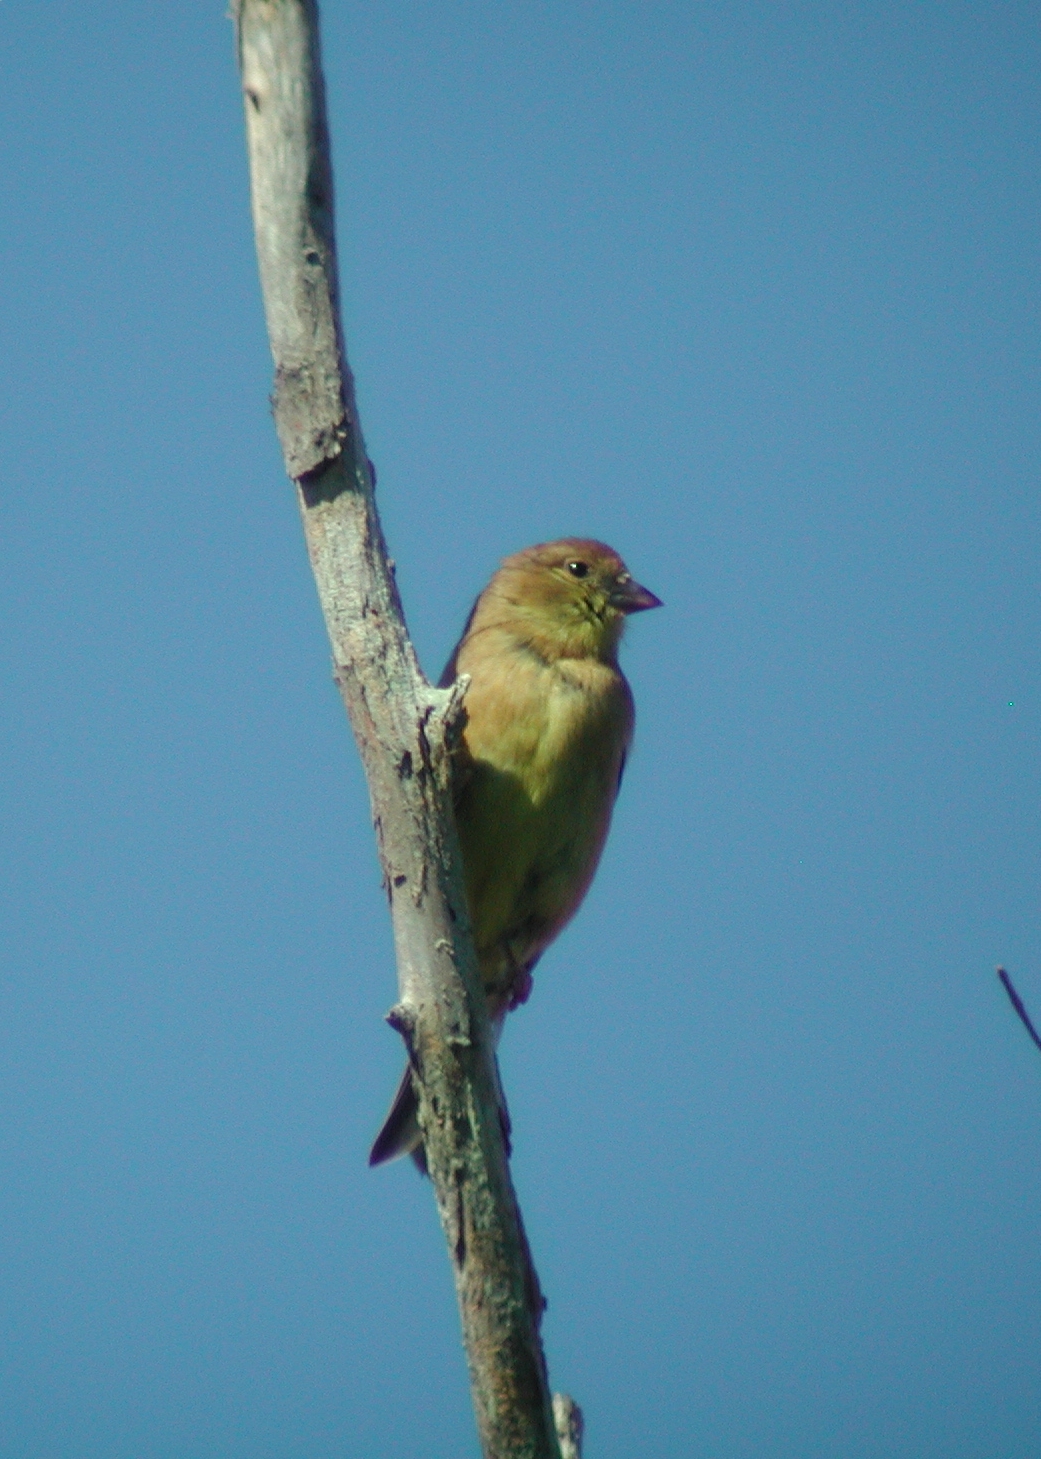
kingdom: Animalia
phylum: Chordata
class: Aves
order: Passeriformes
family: Fringillidae
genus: Spinus
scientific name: Spinus tristis
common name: American goldfinch
